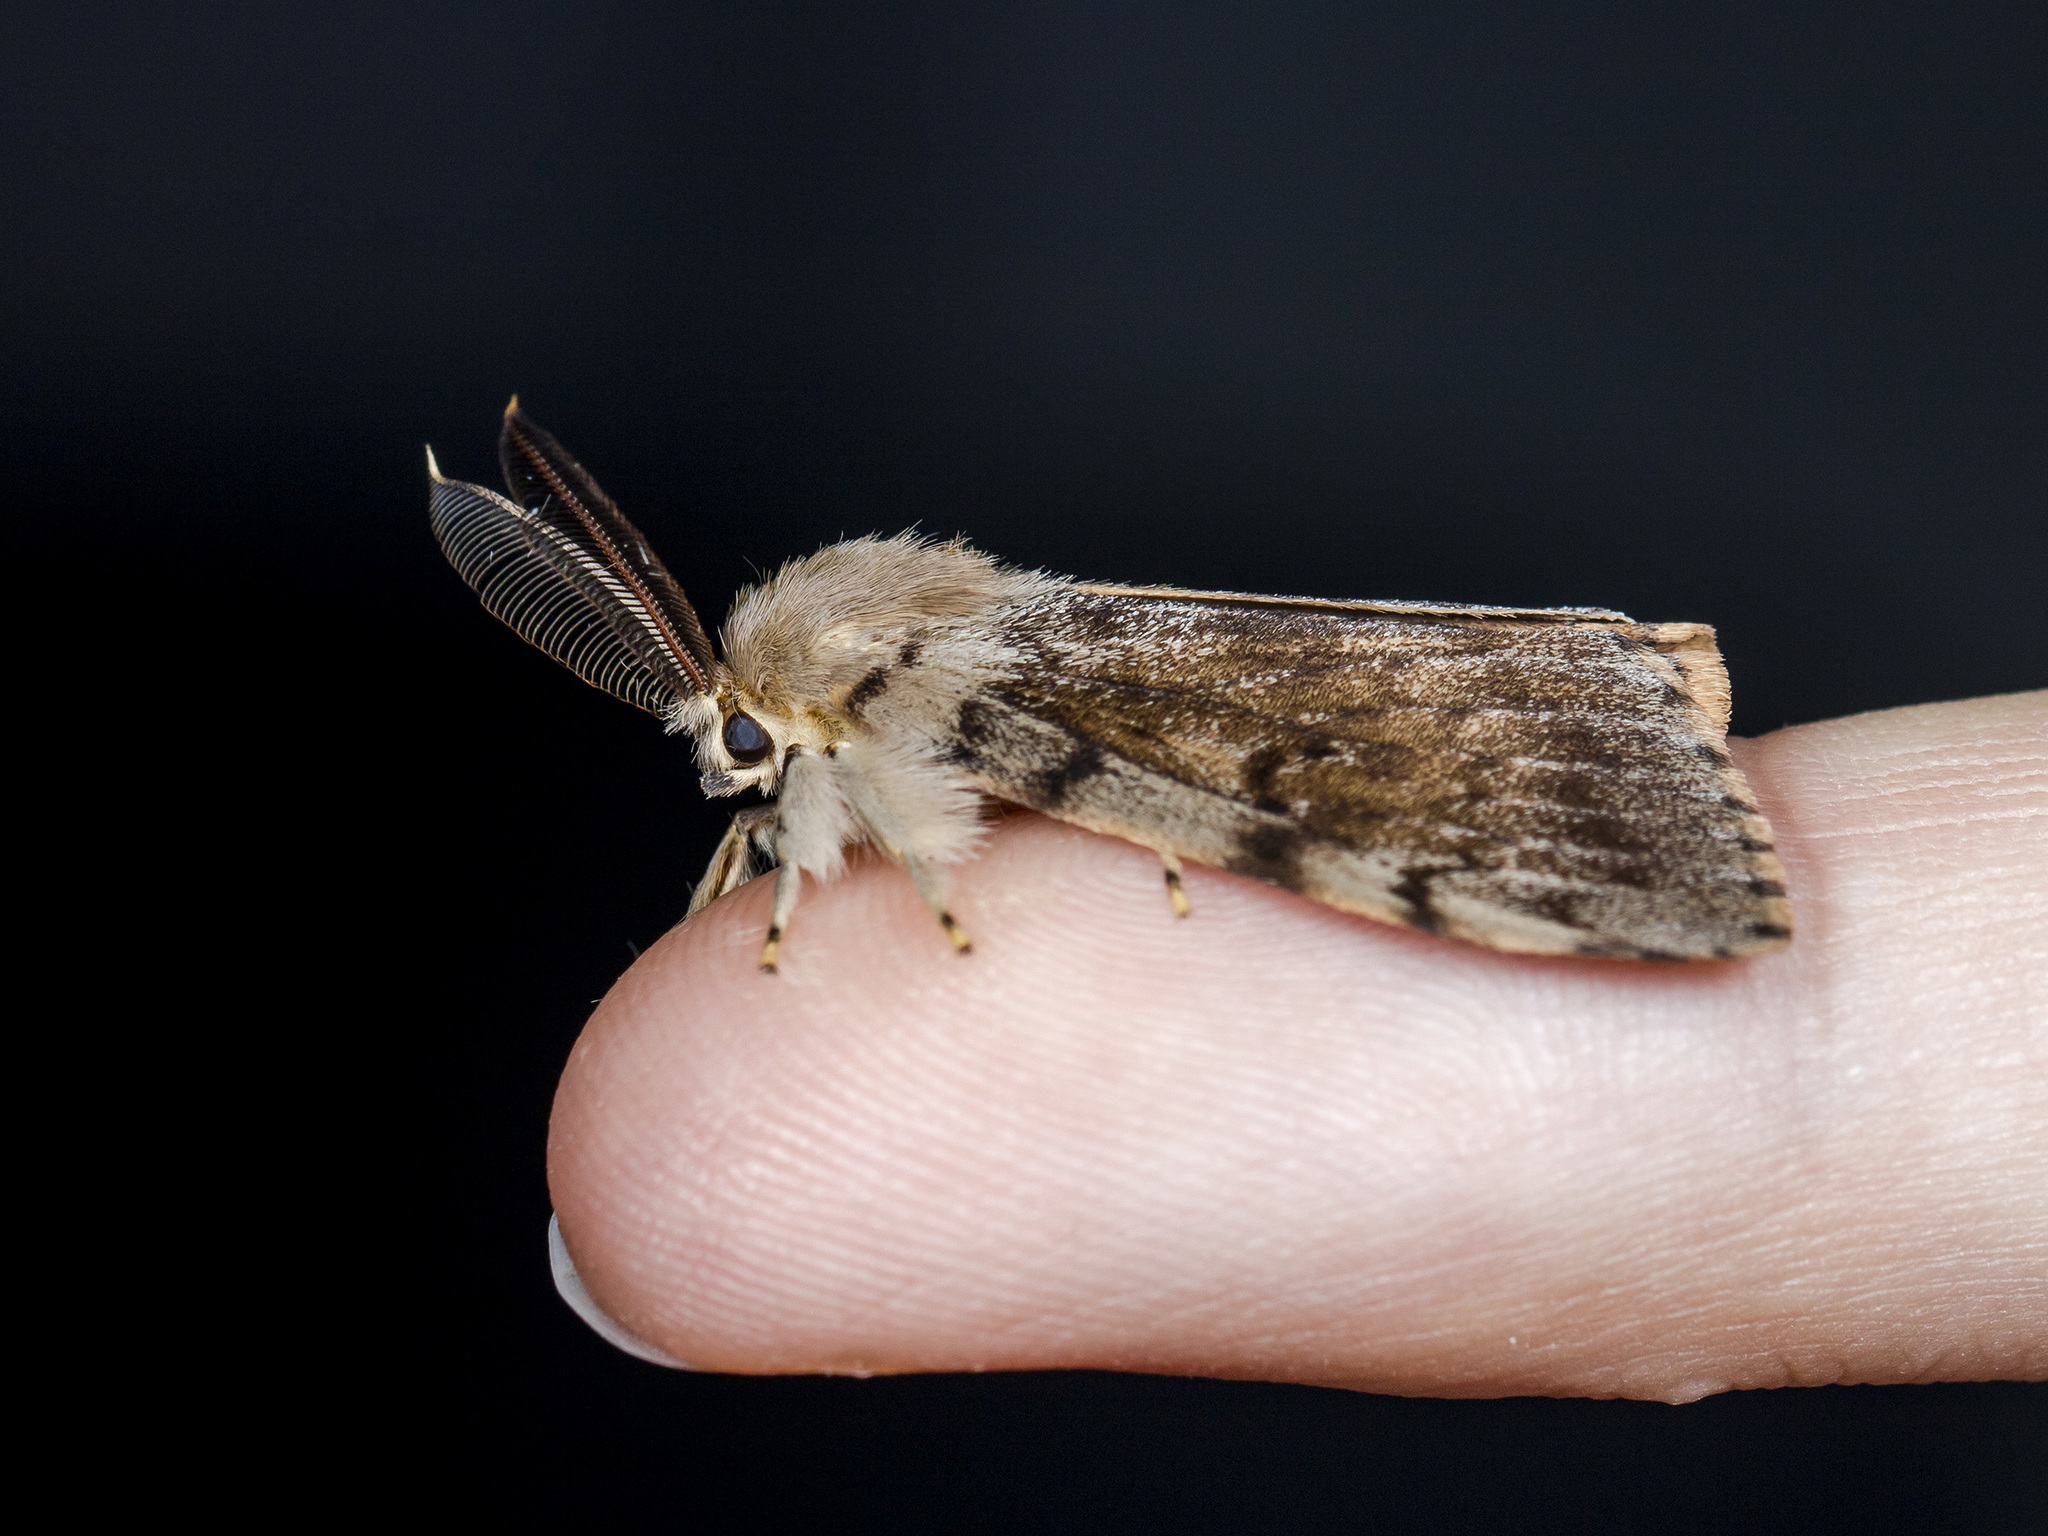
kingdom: Animalia
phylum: Arthropoda
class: Insecta
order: Lepidoptera
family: Erebidae
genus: Lymantria
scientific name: Lymantria dispar
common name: Gypsy moth
